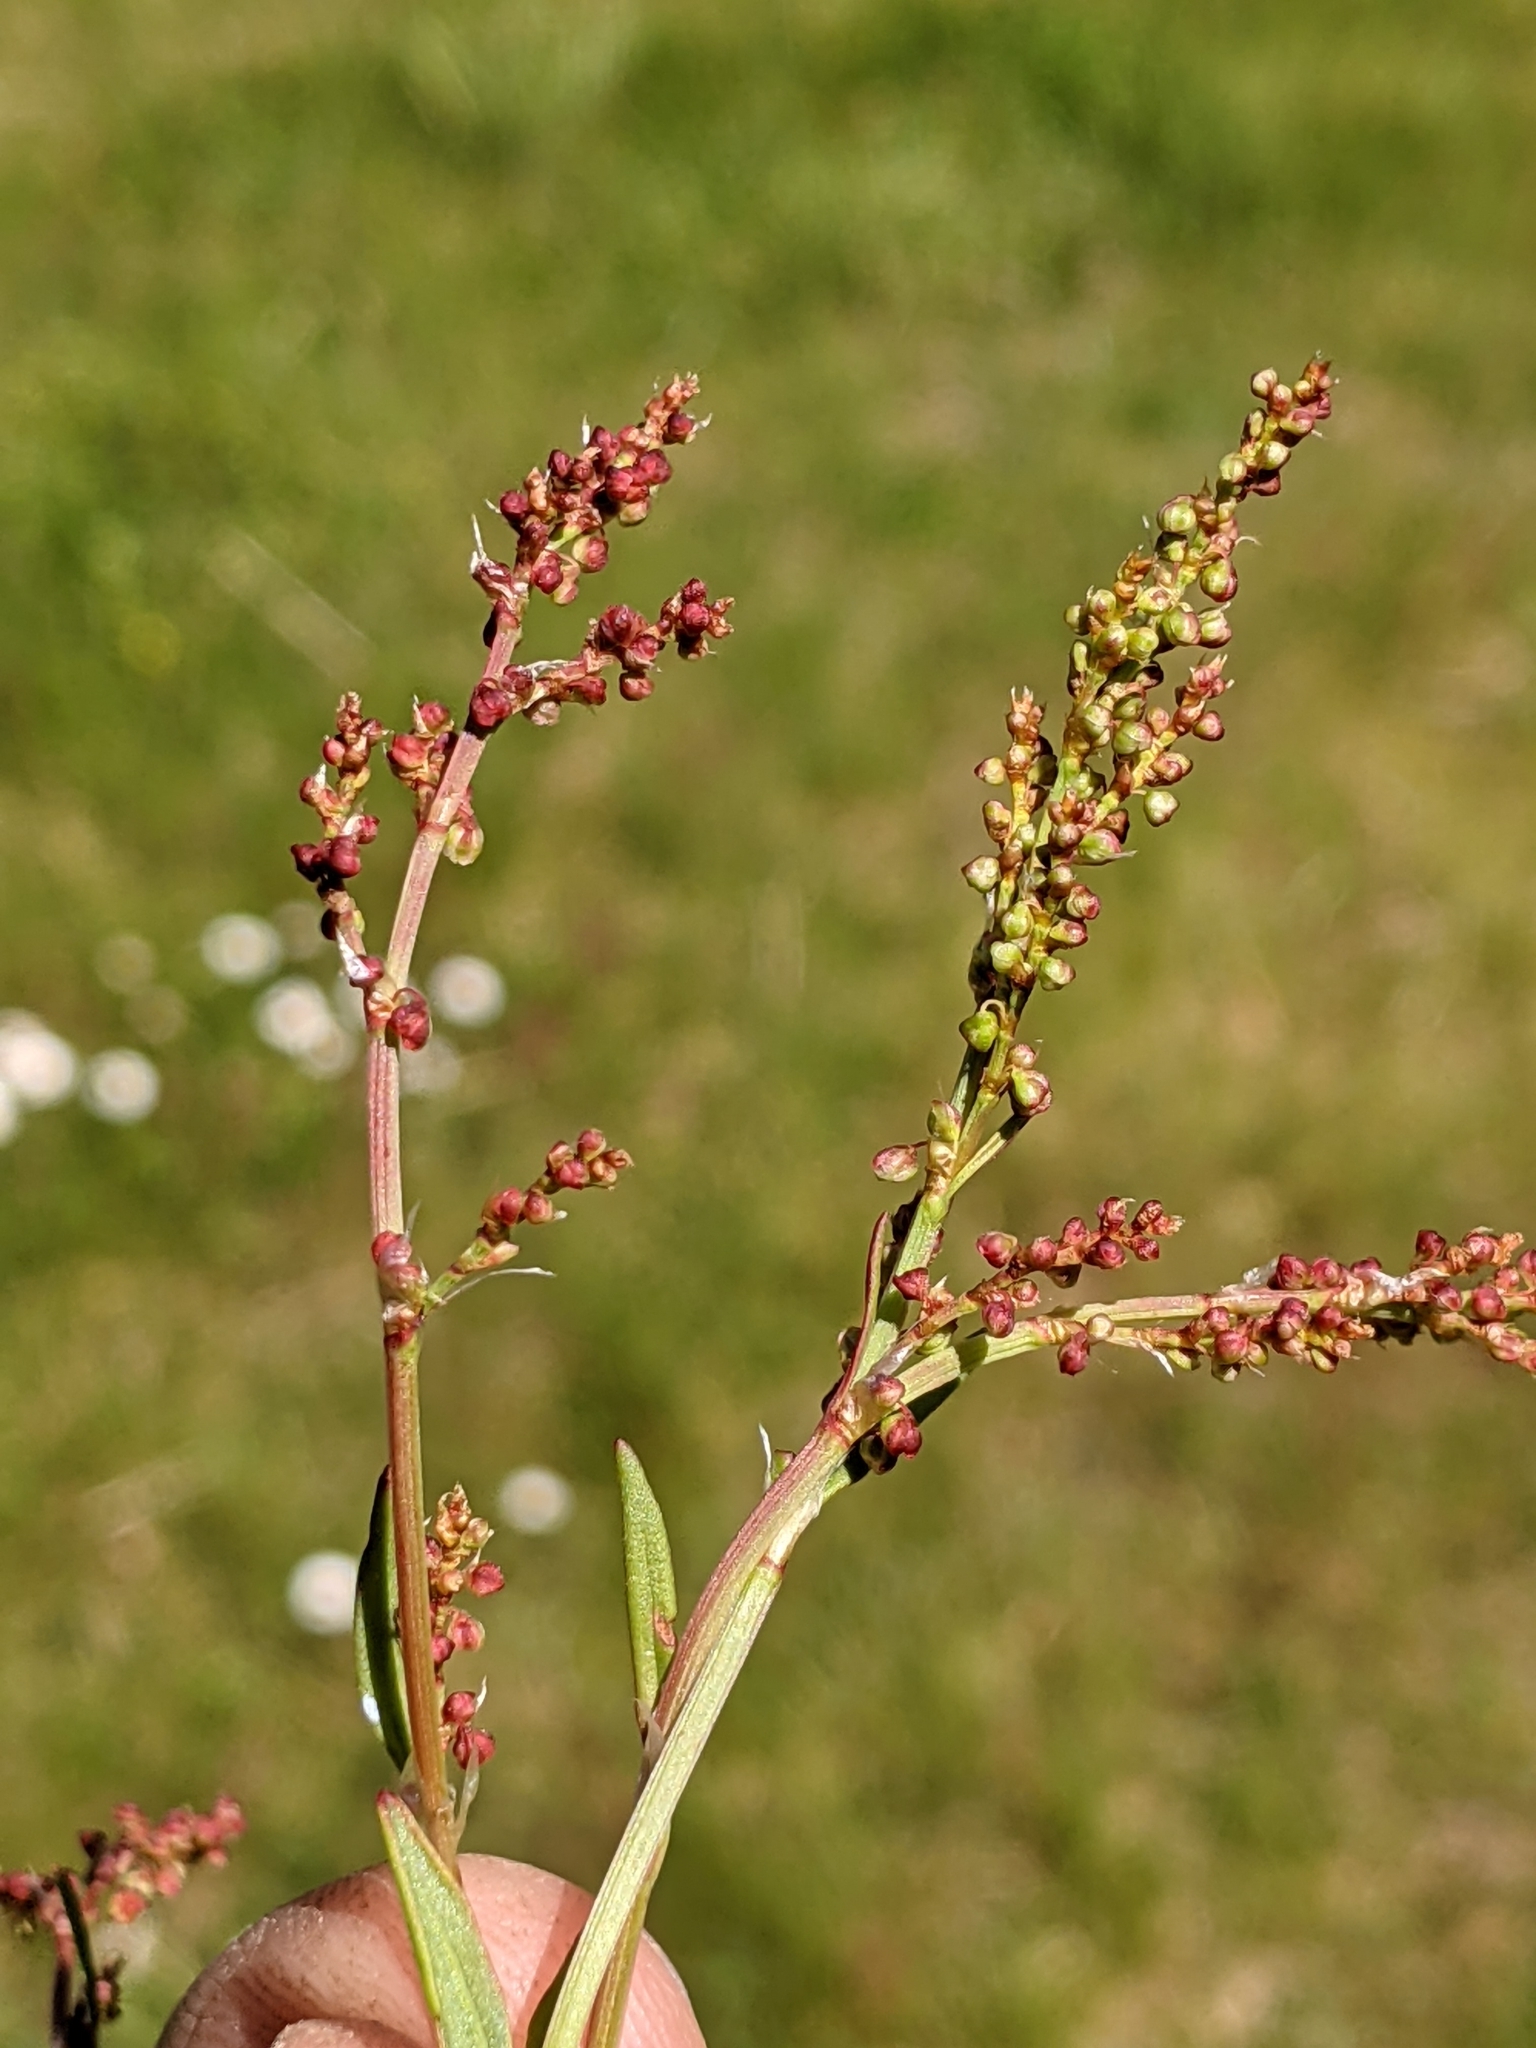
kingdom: Plantae
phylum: Tracheophyta
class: Magnoliopsida
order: Caryophyllales
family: Polygonaceae
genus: Rumex
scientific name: Rumex acetosella
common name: Common sheep sorrel
